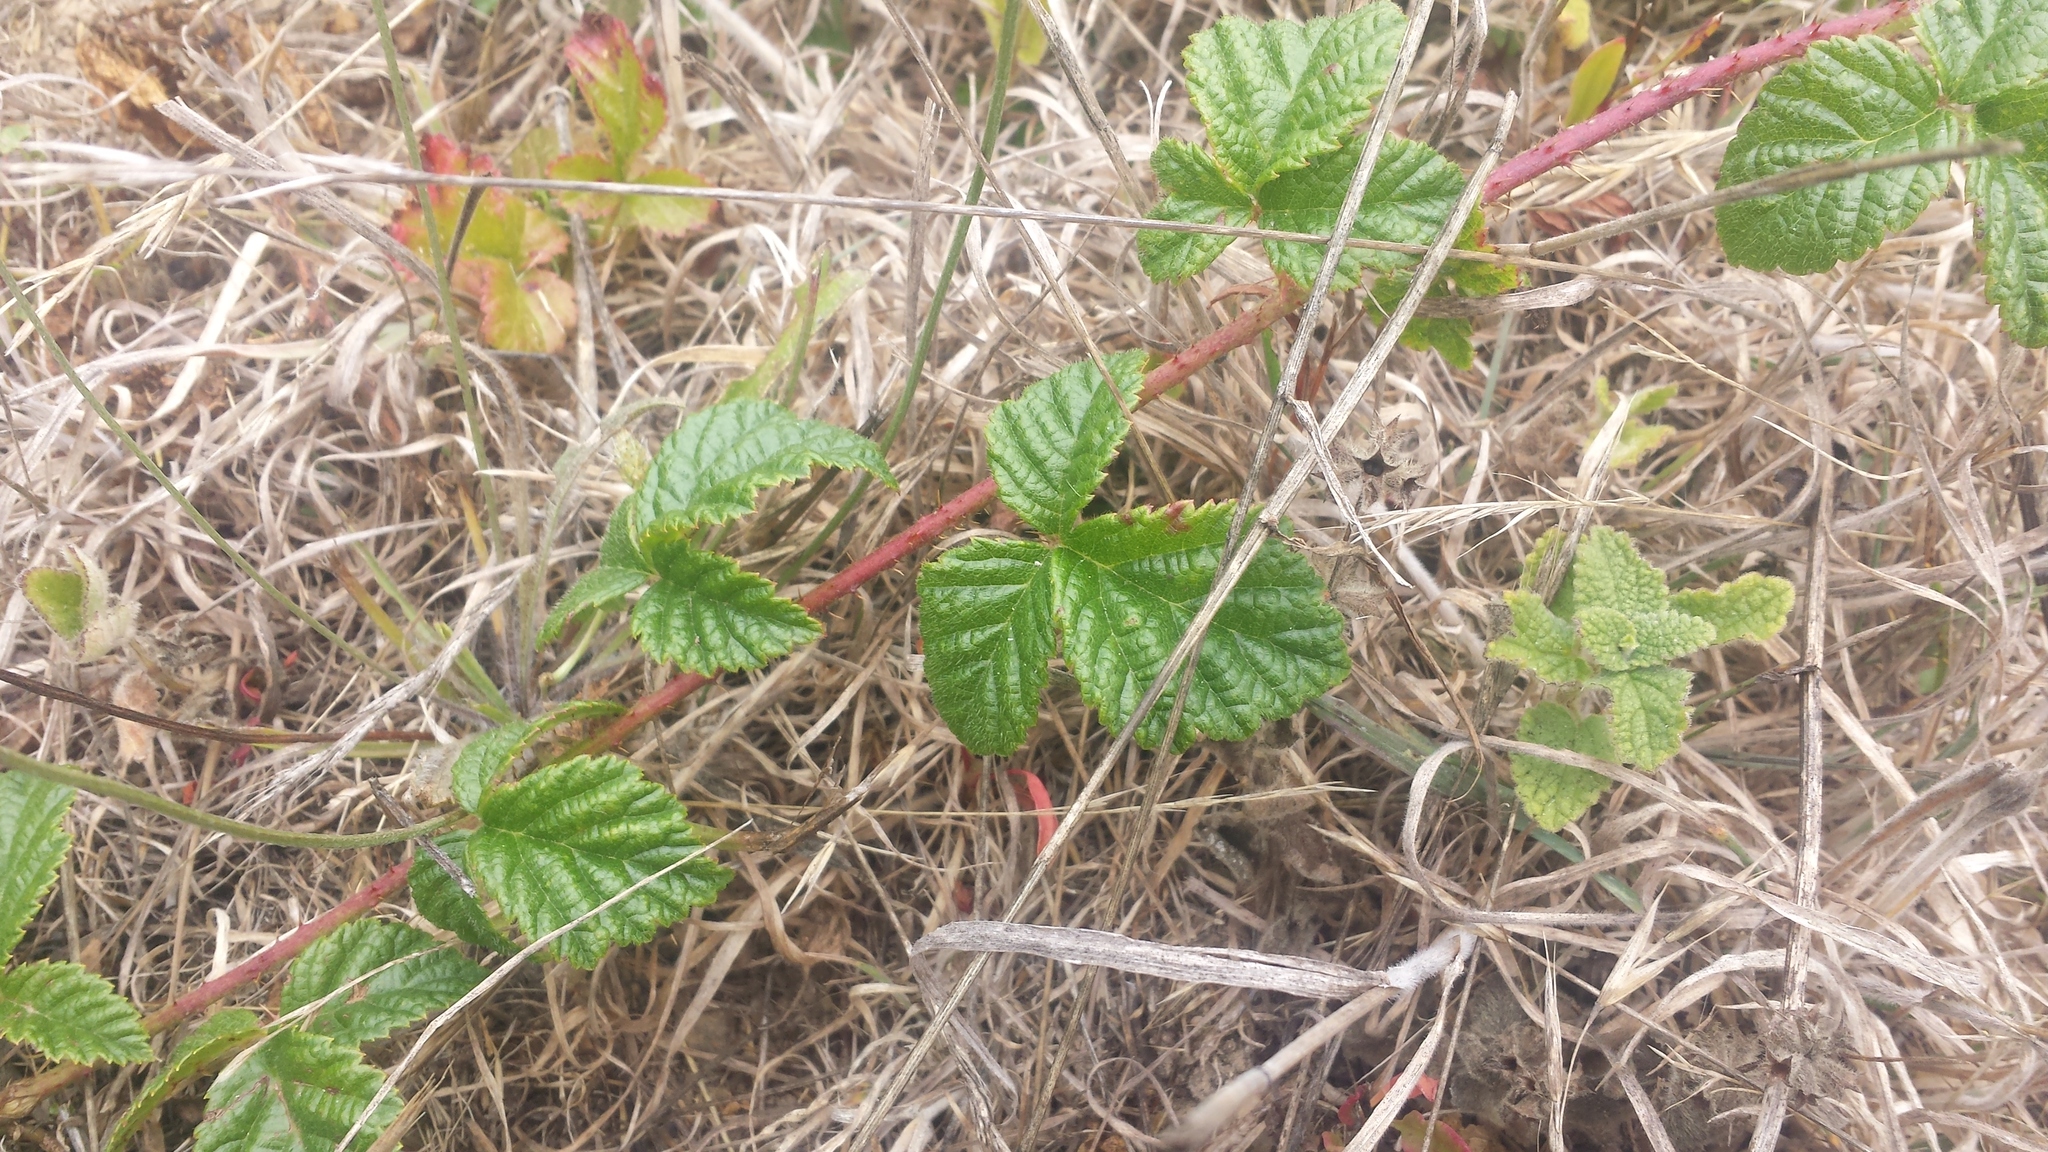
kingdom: Plantae
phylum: Tracheophyta
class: Magnoliopsida
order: Rosales
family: Rosaceae
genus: Rubus
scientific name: Rubus ursinus
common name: Pacific blackberry
